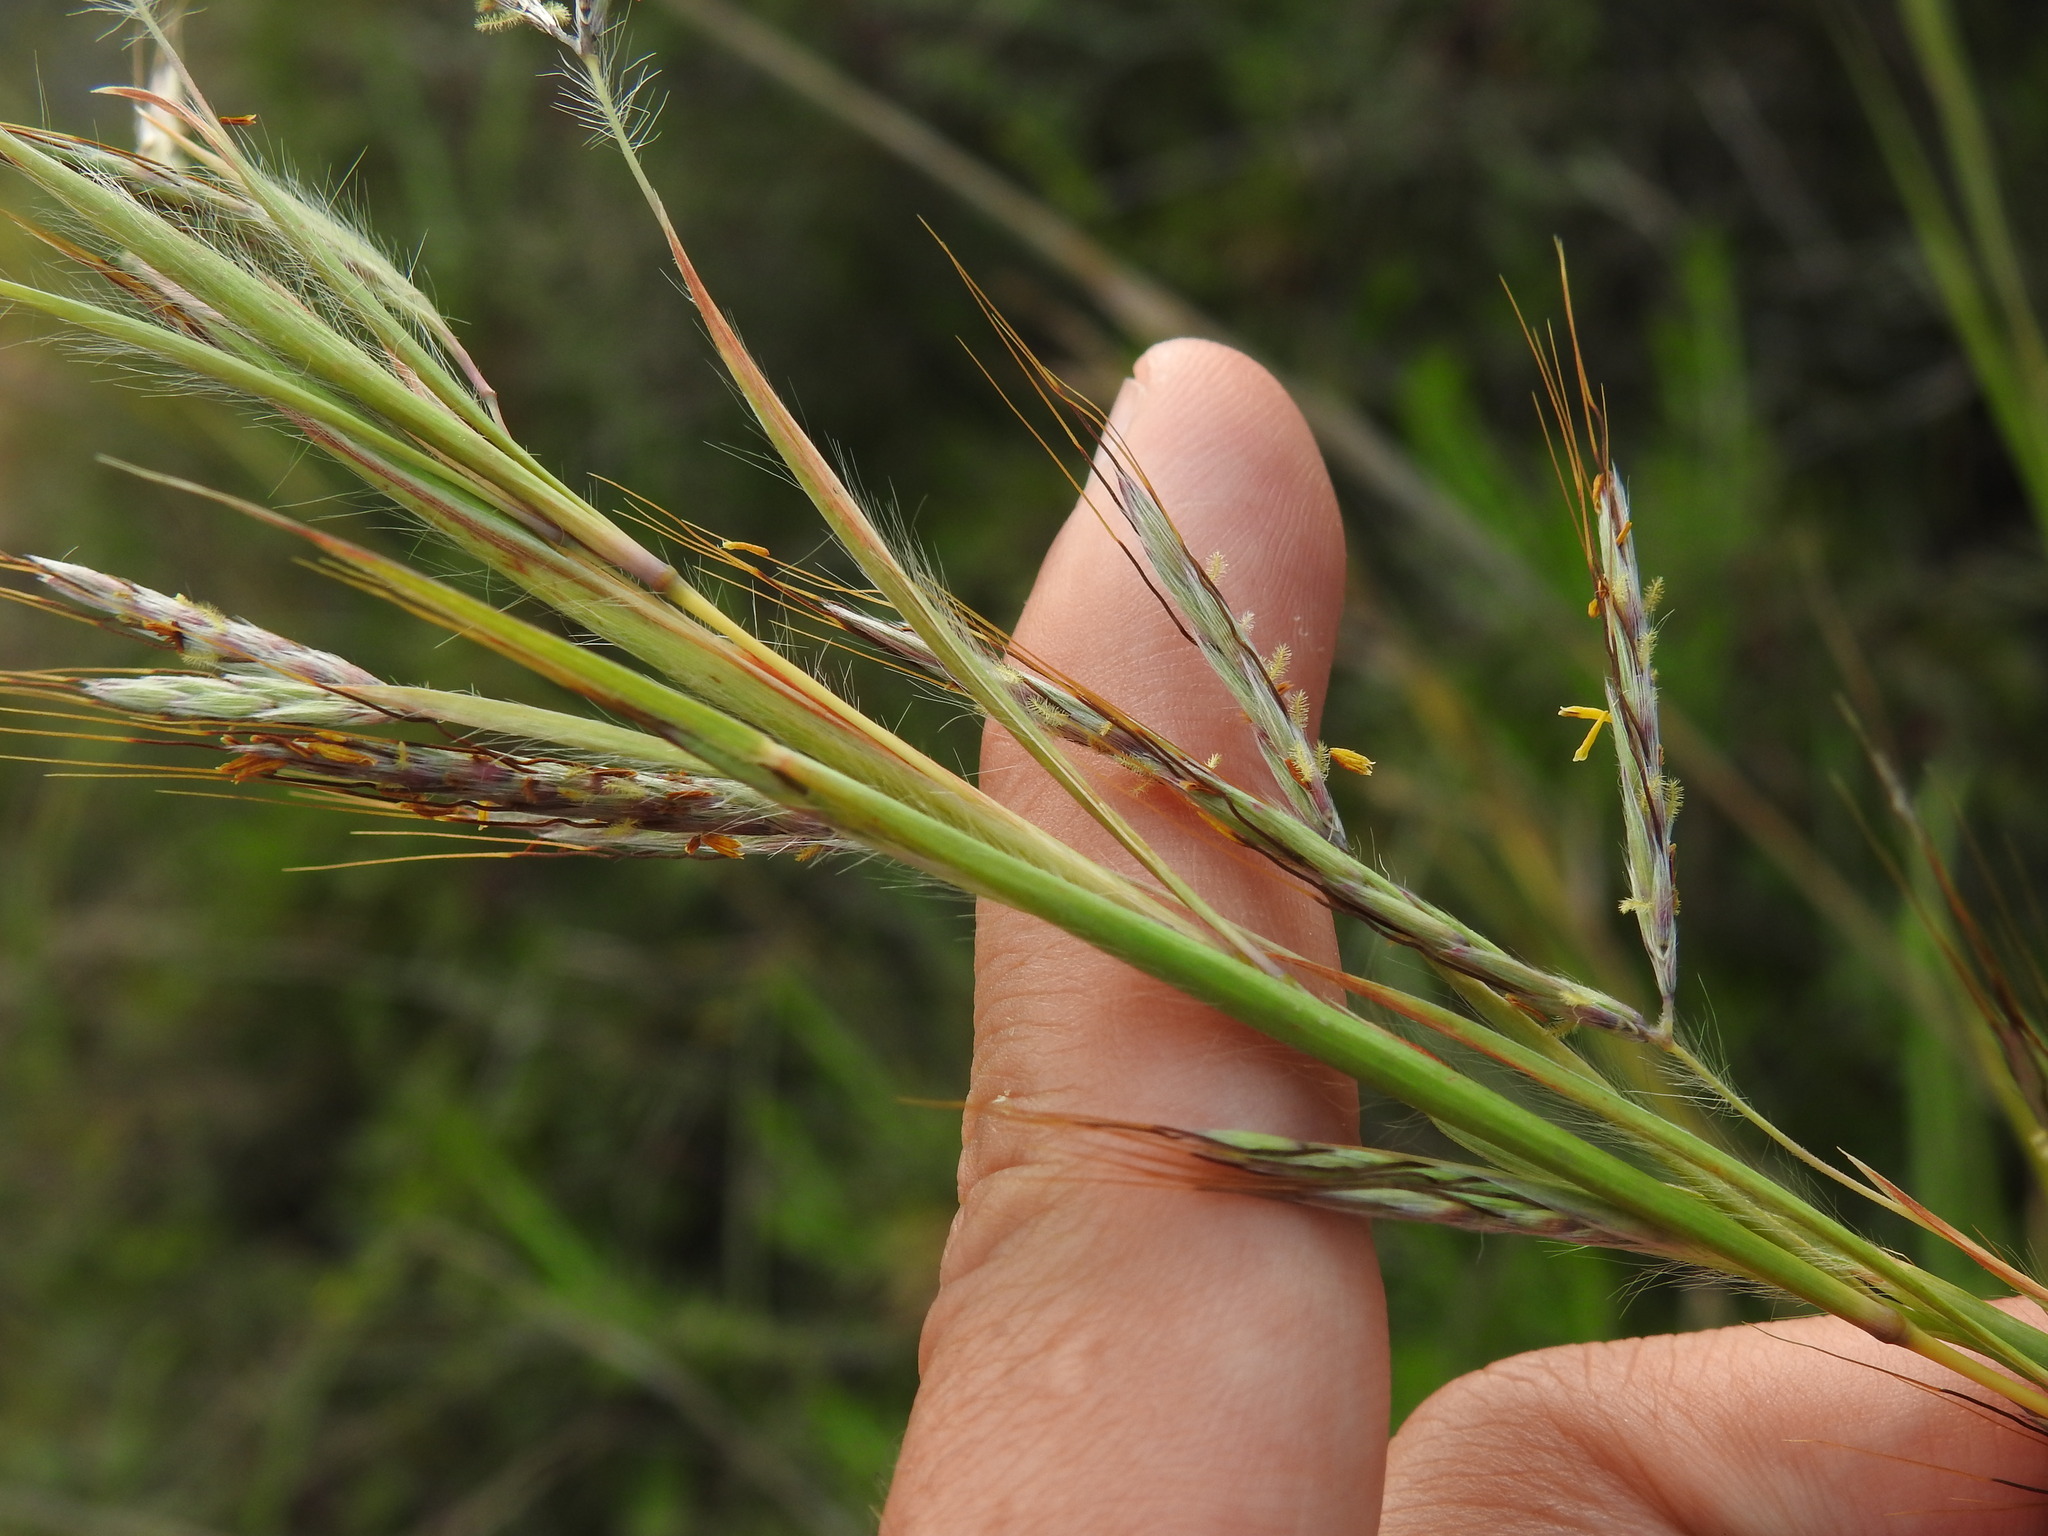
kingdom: Plantae
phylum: Tracheophyta
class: Liliopsida
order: Poales
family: Poaceae
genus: Hyparrhenia
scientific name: Hyparrhenia hirta
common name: Thatching grass
